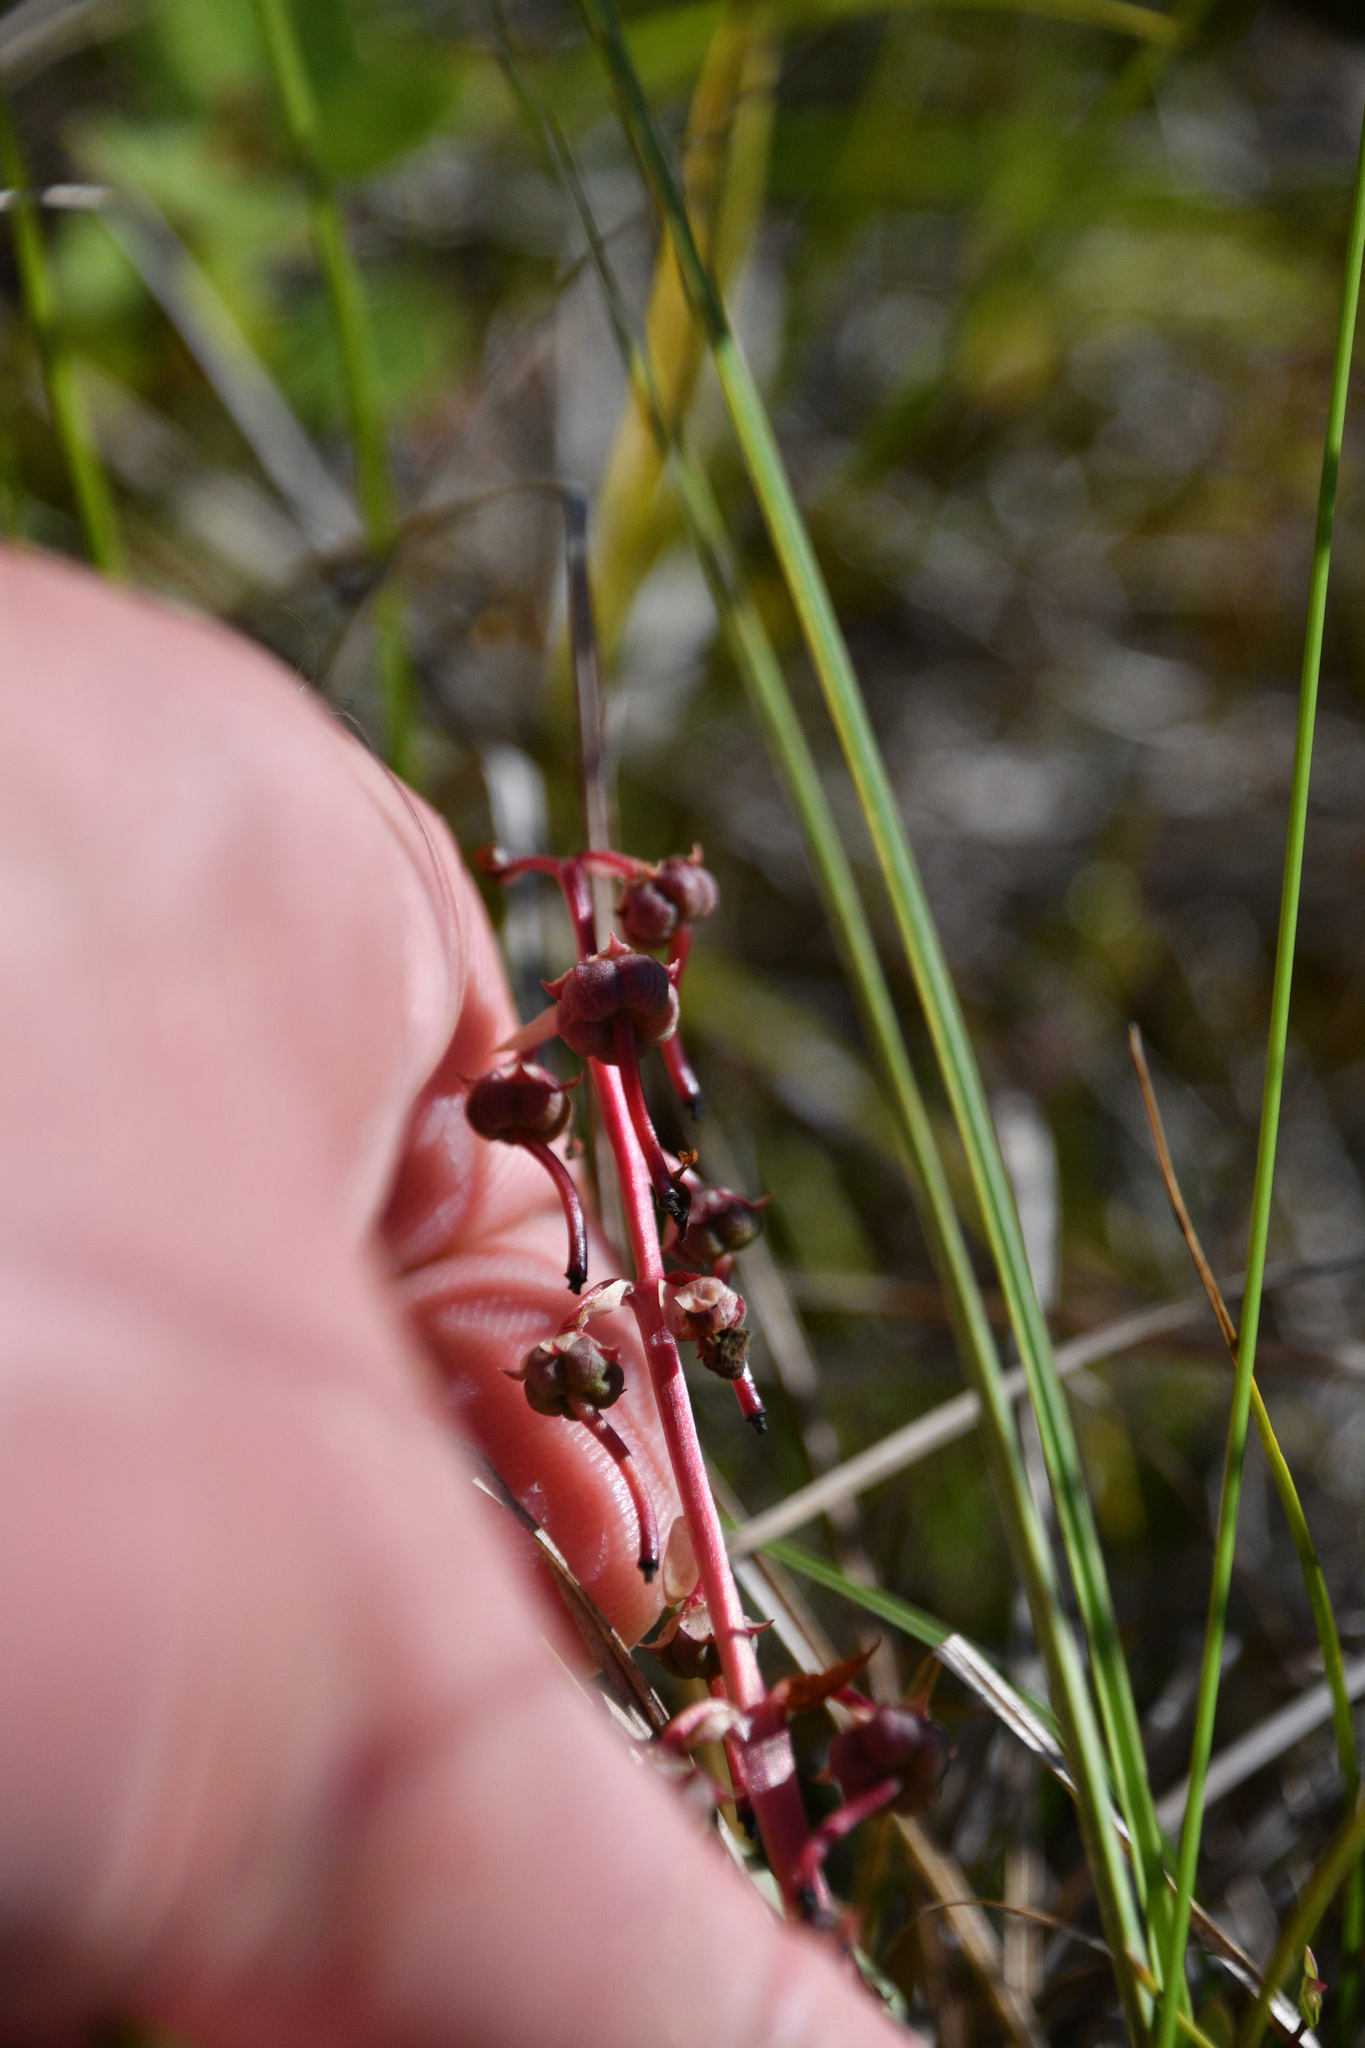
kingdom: Plantae
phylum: Tracheophyta
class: Magnoliopsida
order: Ericales
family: Ericaceae
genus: Pyrola
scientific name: Pyrola grandiflora
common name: Arctic pyrola
